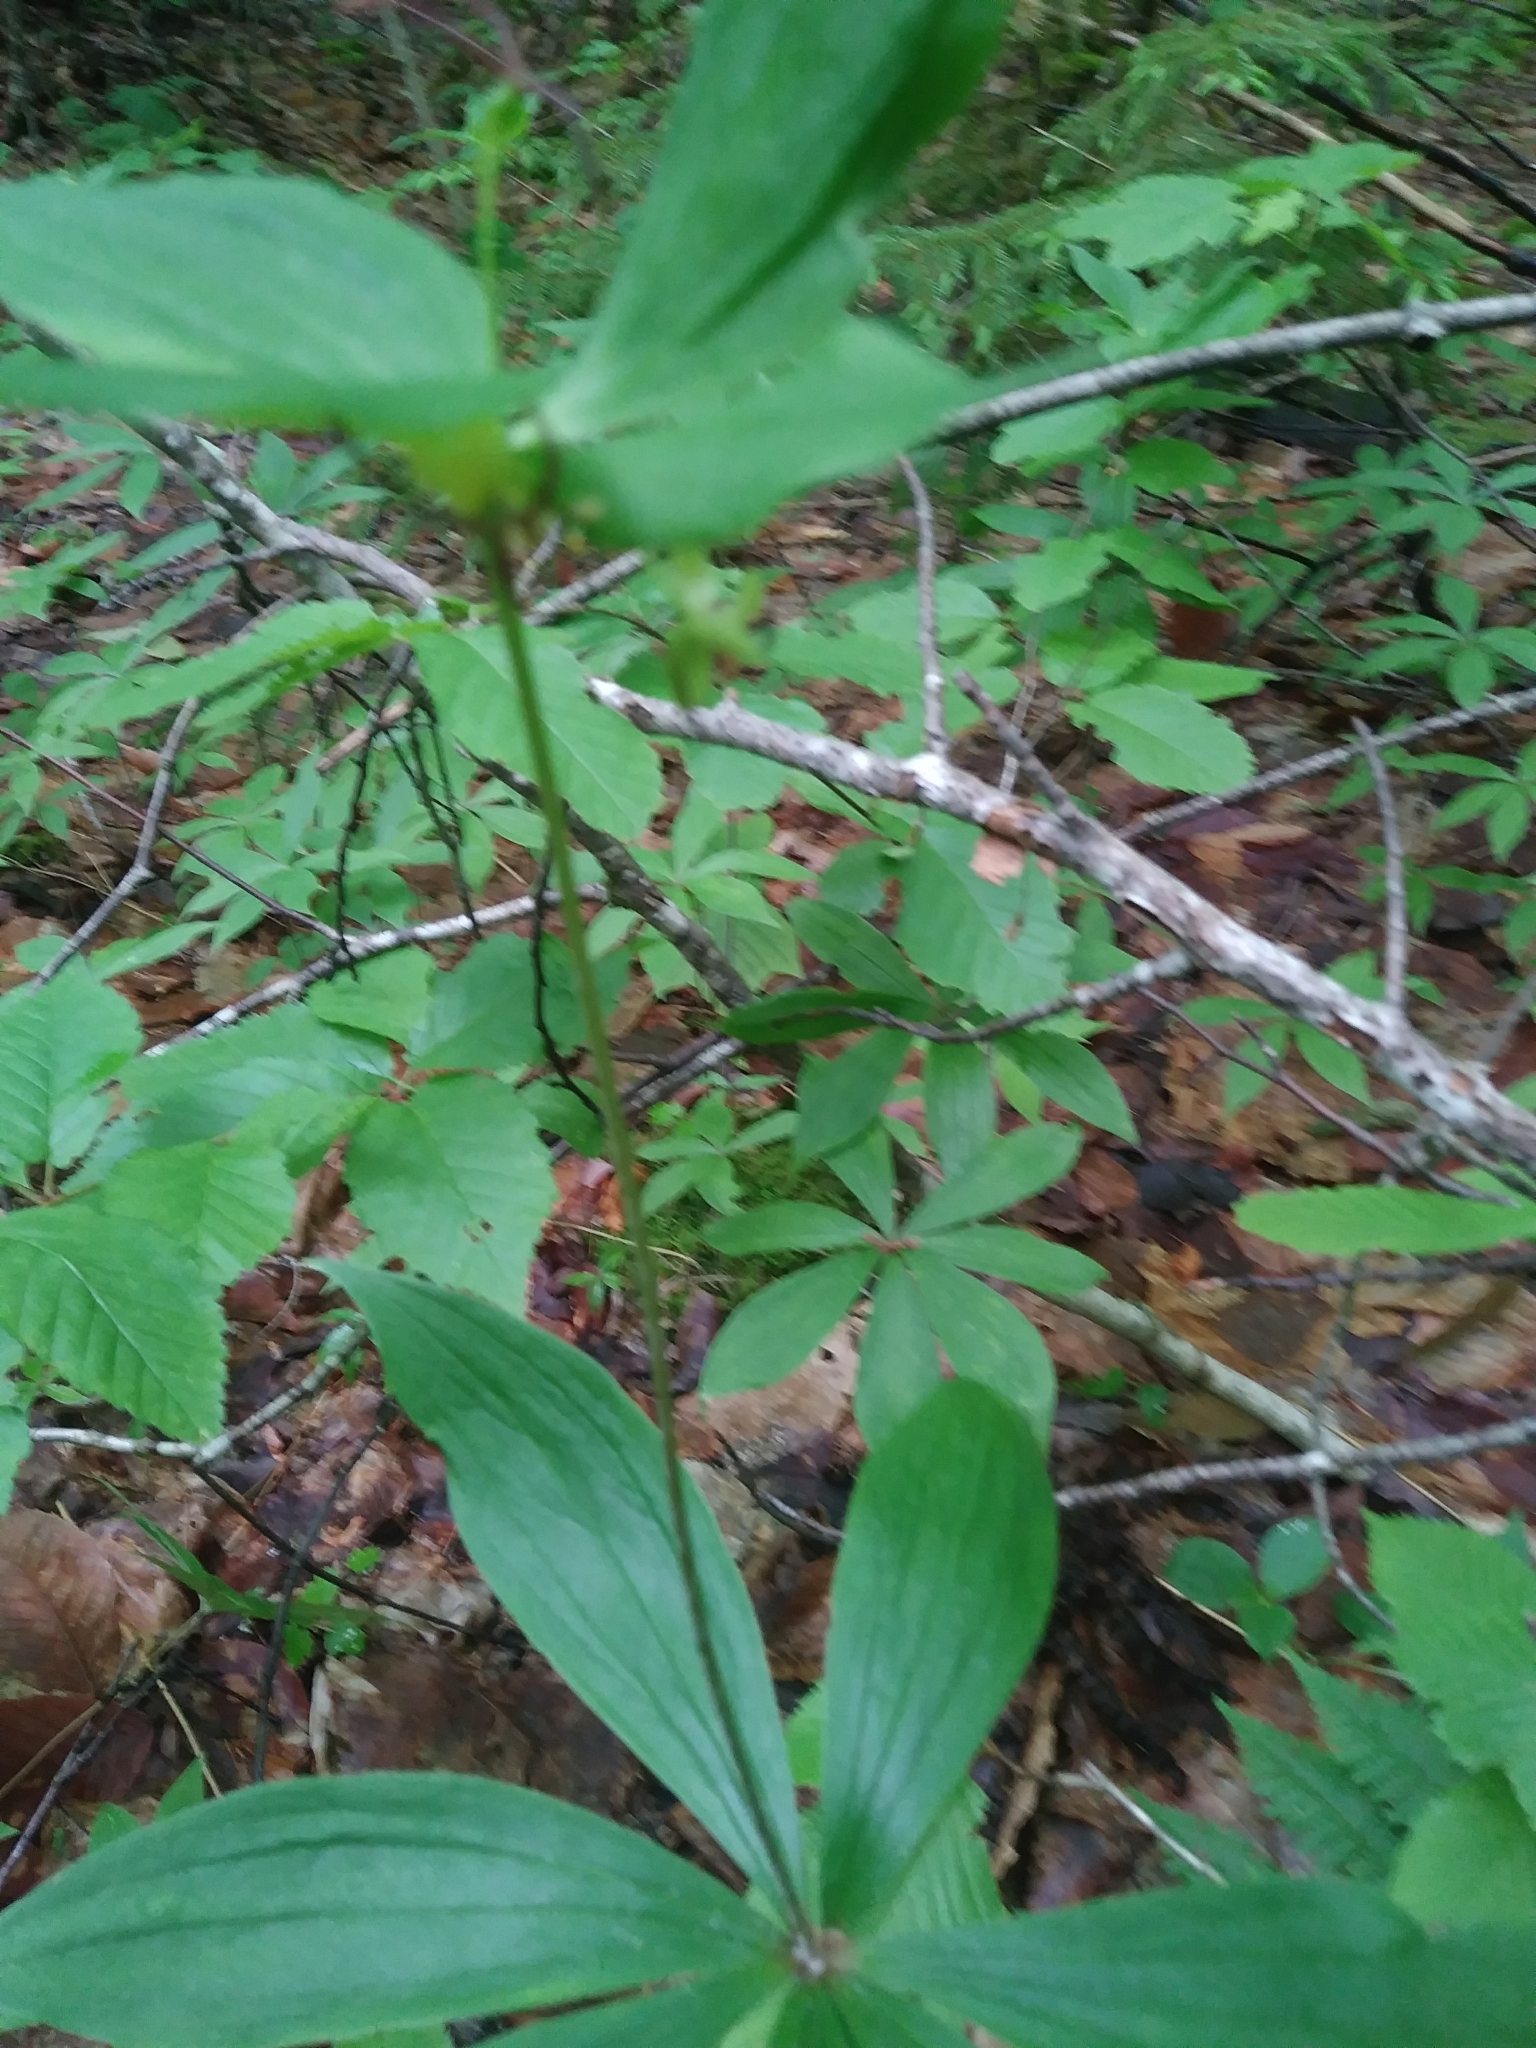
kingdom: Plantae
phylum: Tracheophyta
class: Liliopsida
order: Liliales
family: Liliaceae
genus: Medeola
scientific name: Medeola virginiana
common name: Indian cucumber-root
